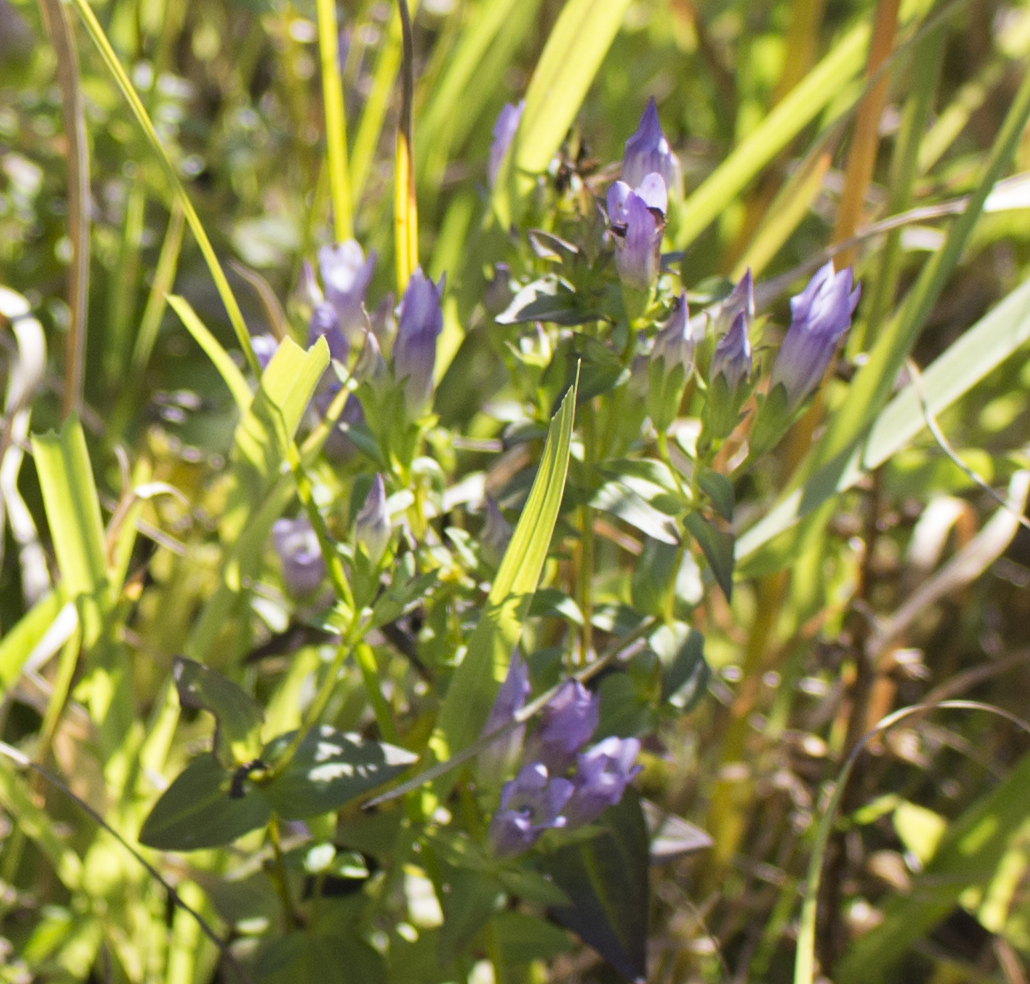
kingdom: Plantae
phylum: Tracheophyta
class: Magnoliopsida
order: Gentianales
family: Gentianaceae
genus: Gentianella
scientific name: Gentianella quinquefolia
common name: Agueweed
